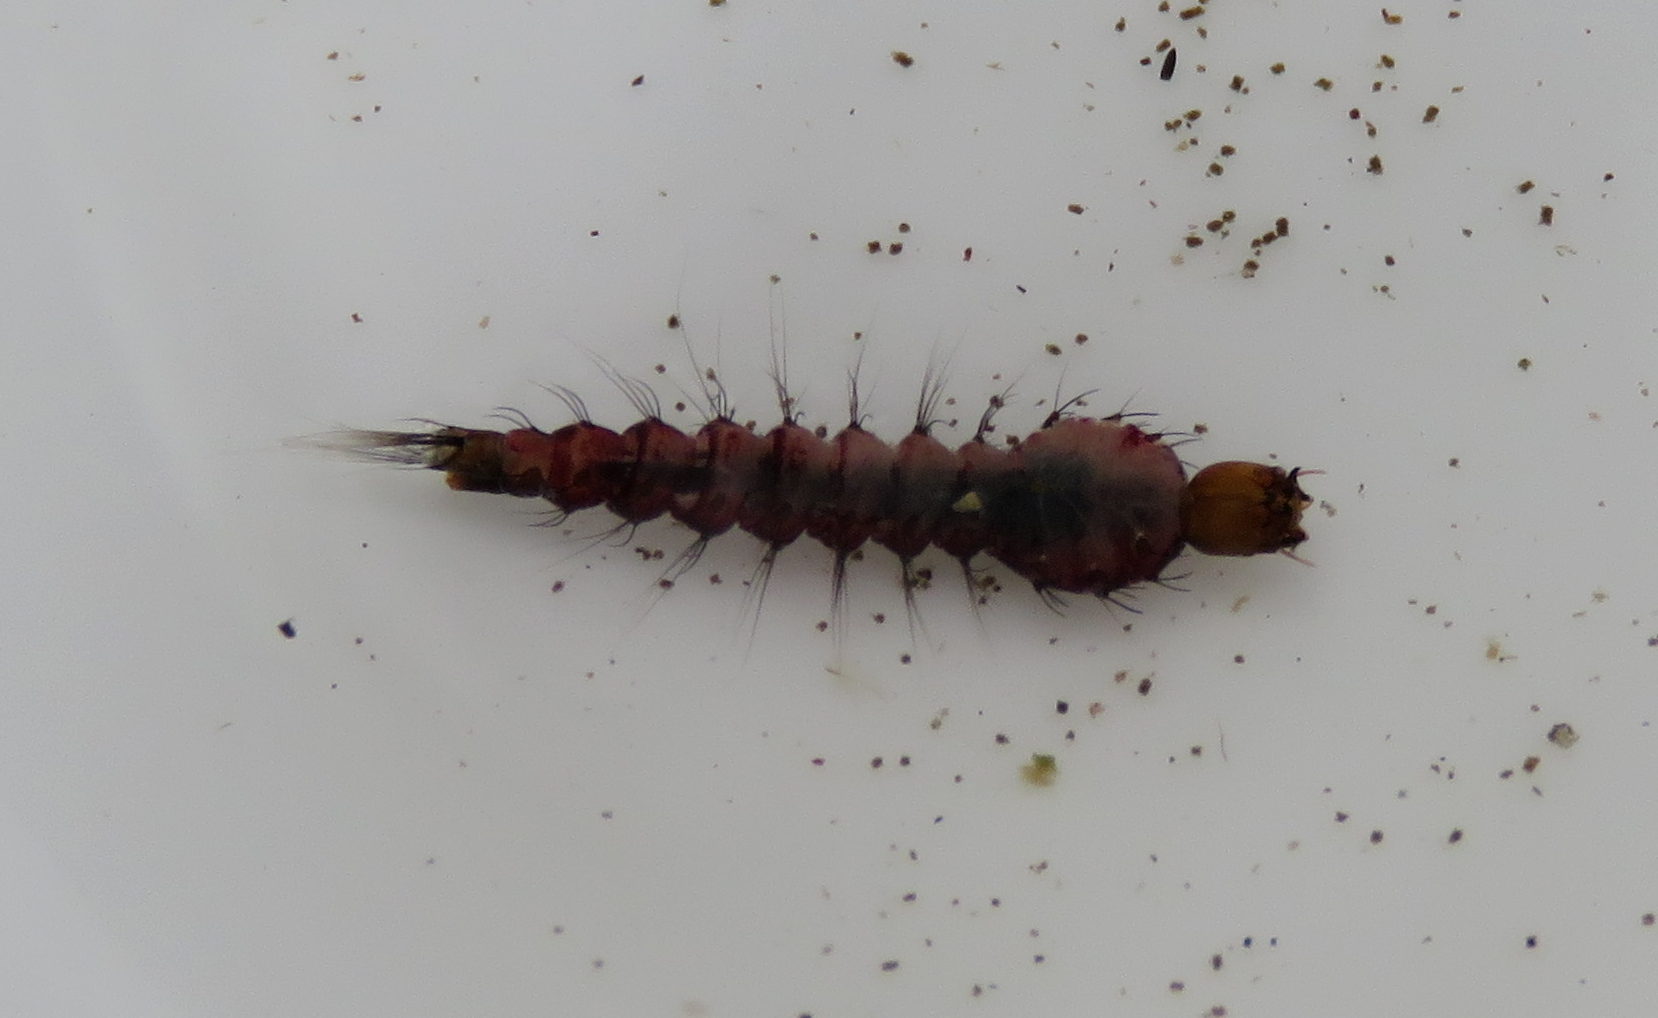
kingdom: Animalia
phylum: Arthropoda
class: Insecta
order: Diptera
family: Culicidae
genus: Toxorhynchites
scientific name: Toxorhynchites speciosus
